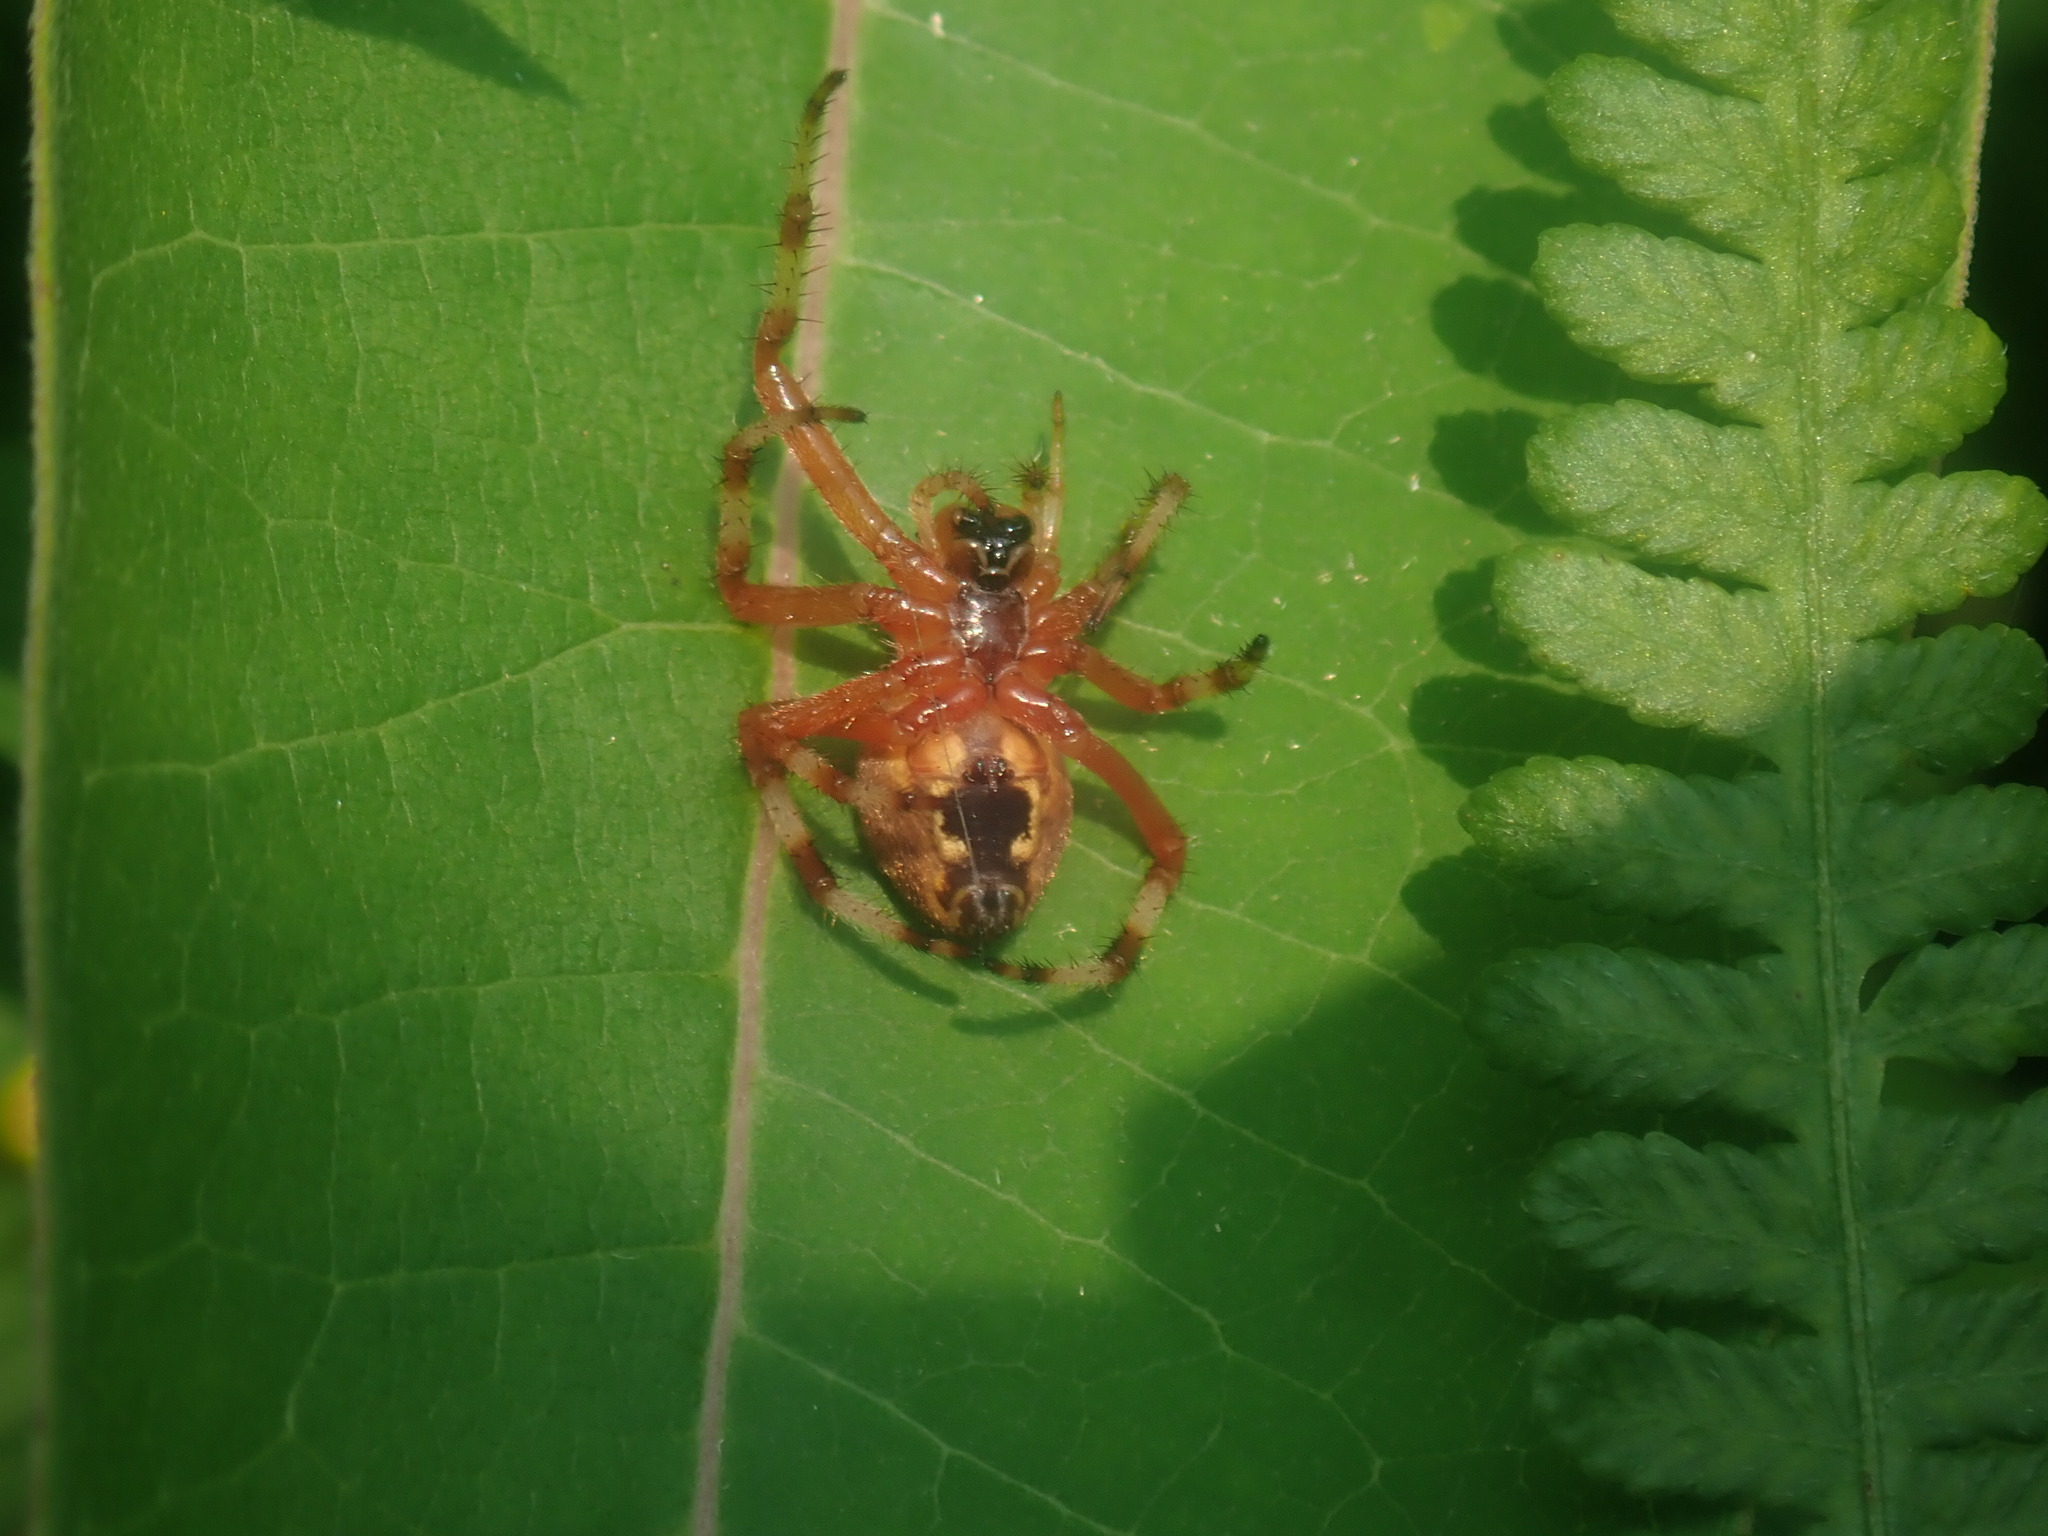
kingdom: Animalia
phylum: Arthropoda
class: Arachnida
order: Araneae
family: Araneidae
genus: Araneus
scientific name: Araneus marmoreus
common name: Marbled orbweaver
